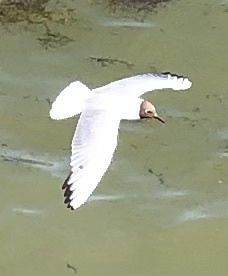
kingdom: Animalia
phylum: Chordata
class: Aves
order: Charadriiformes
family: Laridae
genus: Chroicocephalus
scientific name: Chroicocephalus ridibundus
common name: Black-headed gull
